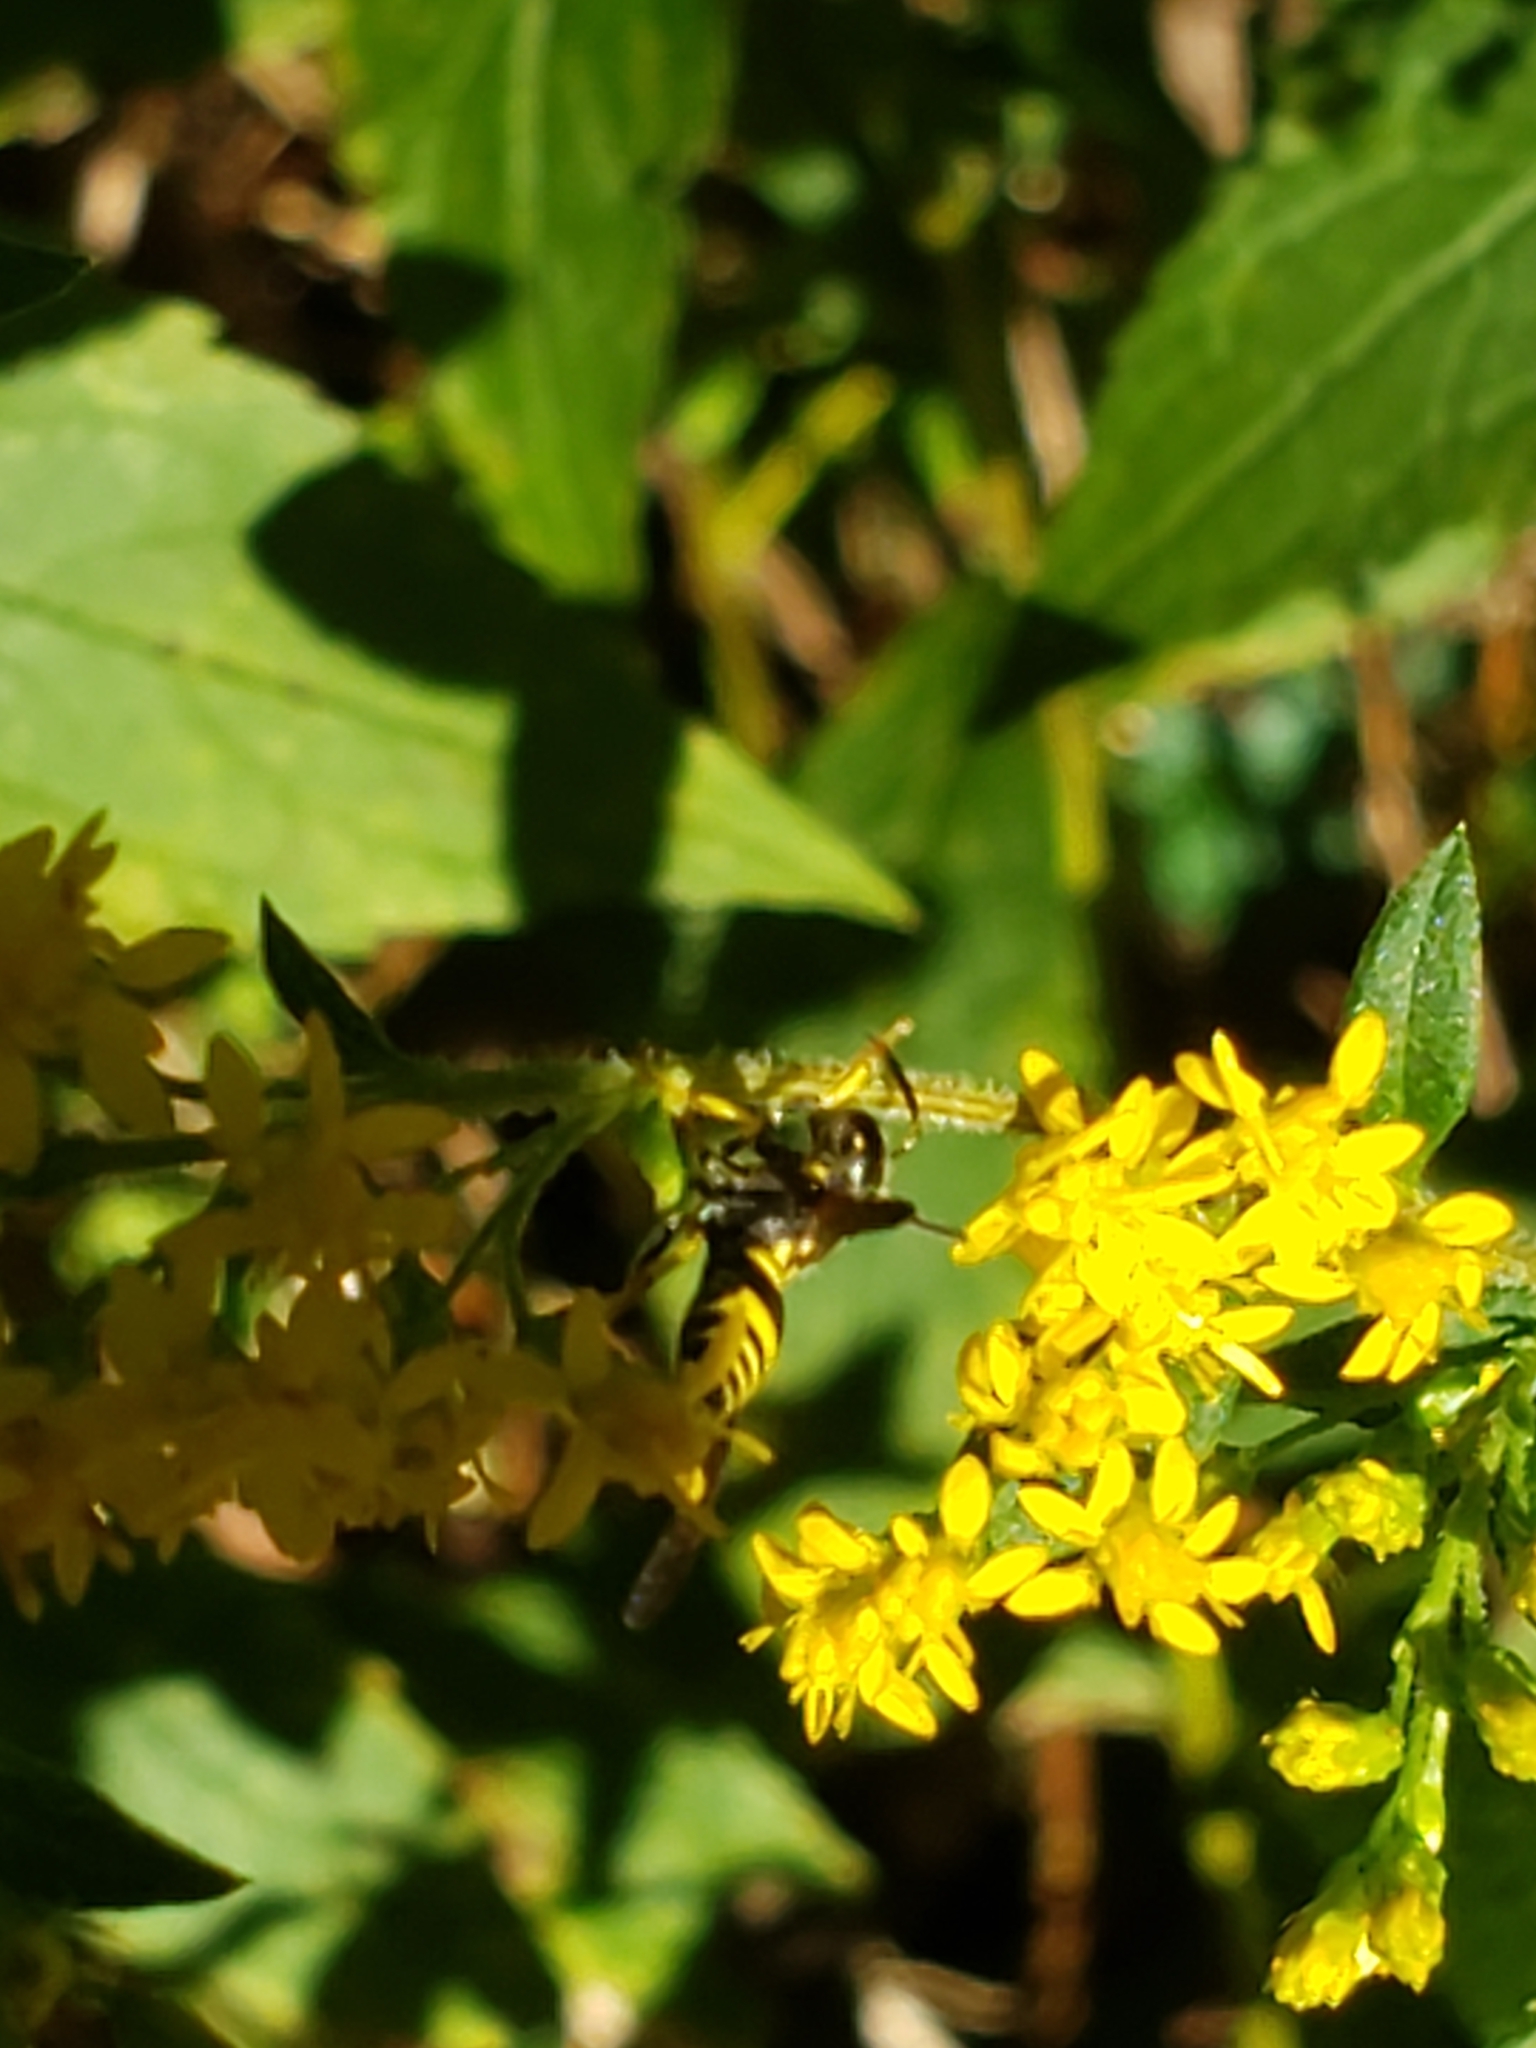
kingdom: Animalia
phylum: Arthropoda
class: Insecta
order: Hymenoptera
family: Vespidae
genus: Ancistrocerus
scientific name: Ancistrocerus adiabatus
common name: Bramble mason wasp
